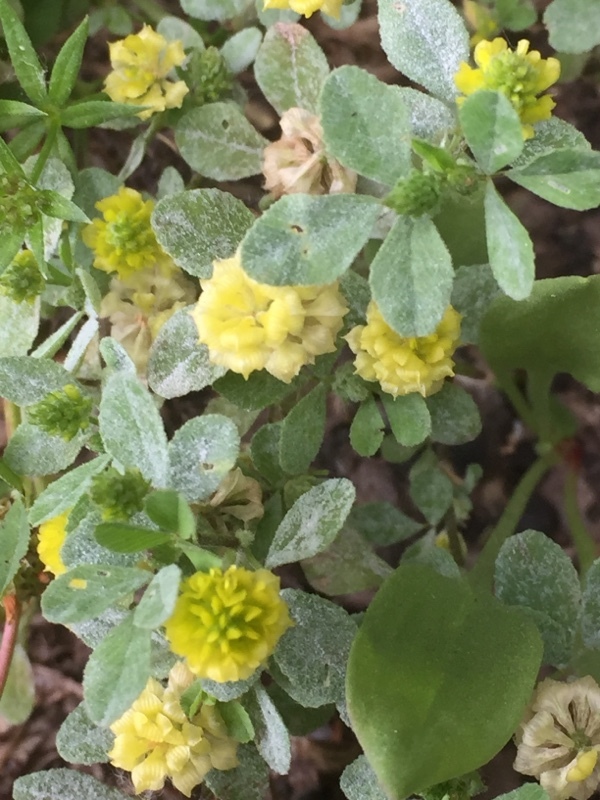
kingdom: Plantae
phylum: Tracheophyta
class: Magnoliopsida
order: Fabales
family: Fabaceae
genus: Trifolium
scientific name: Trifolium campestre
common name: Field clover
